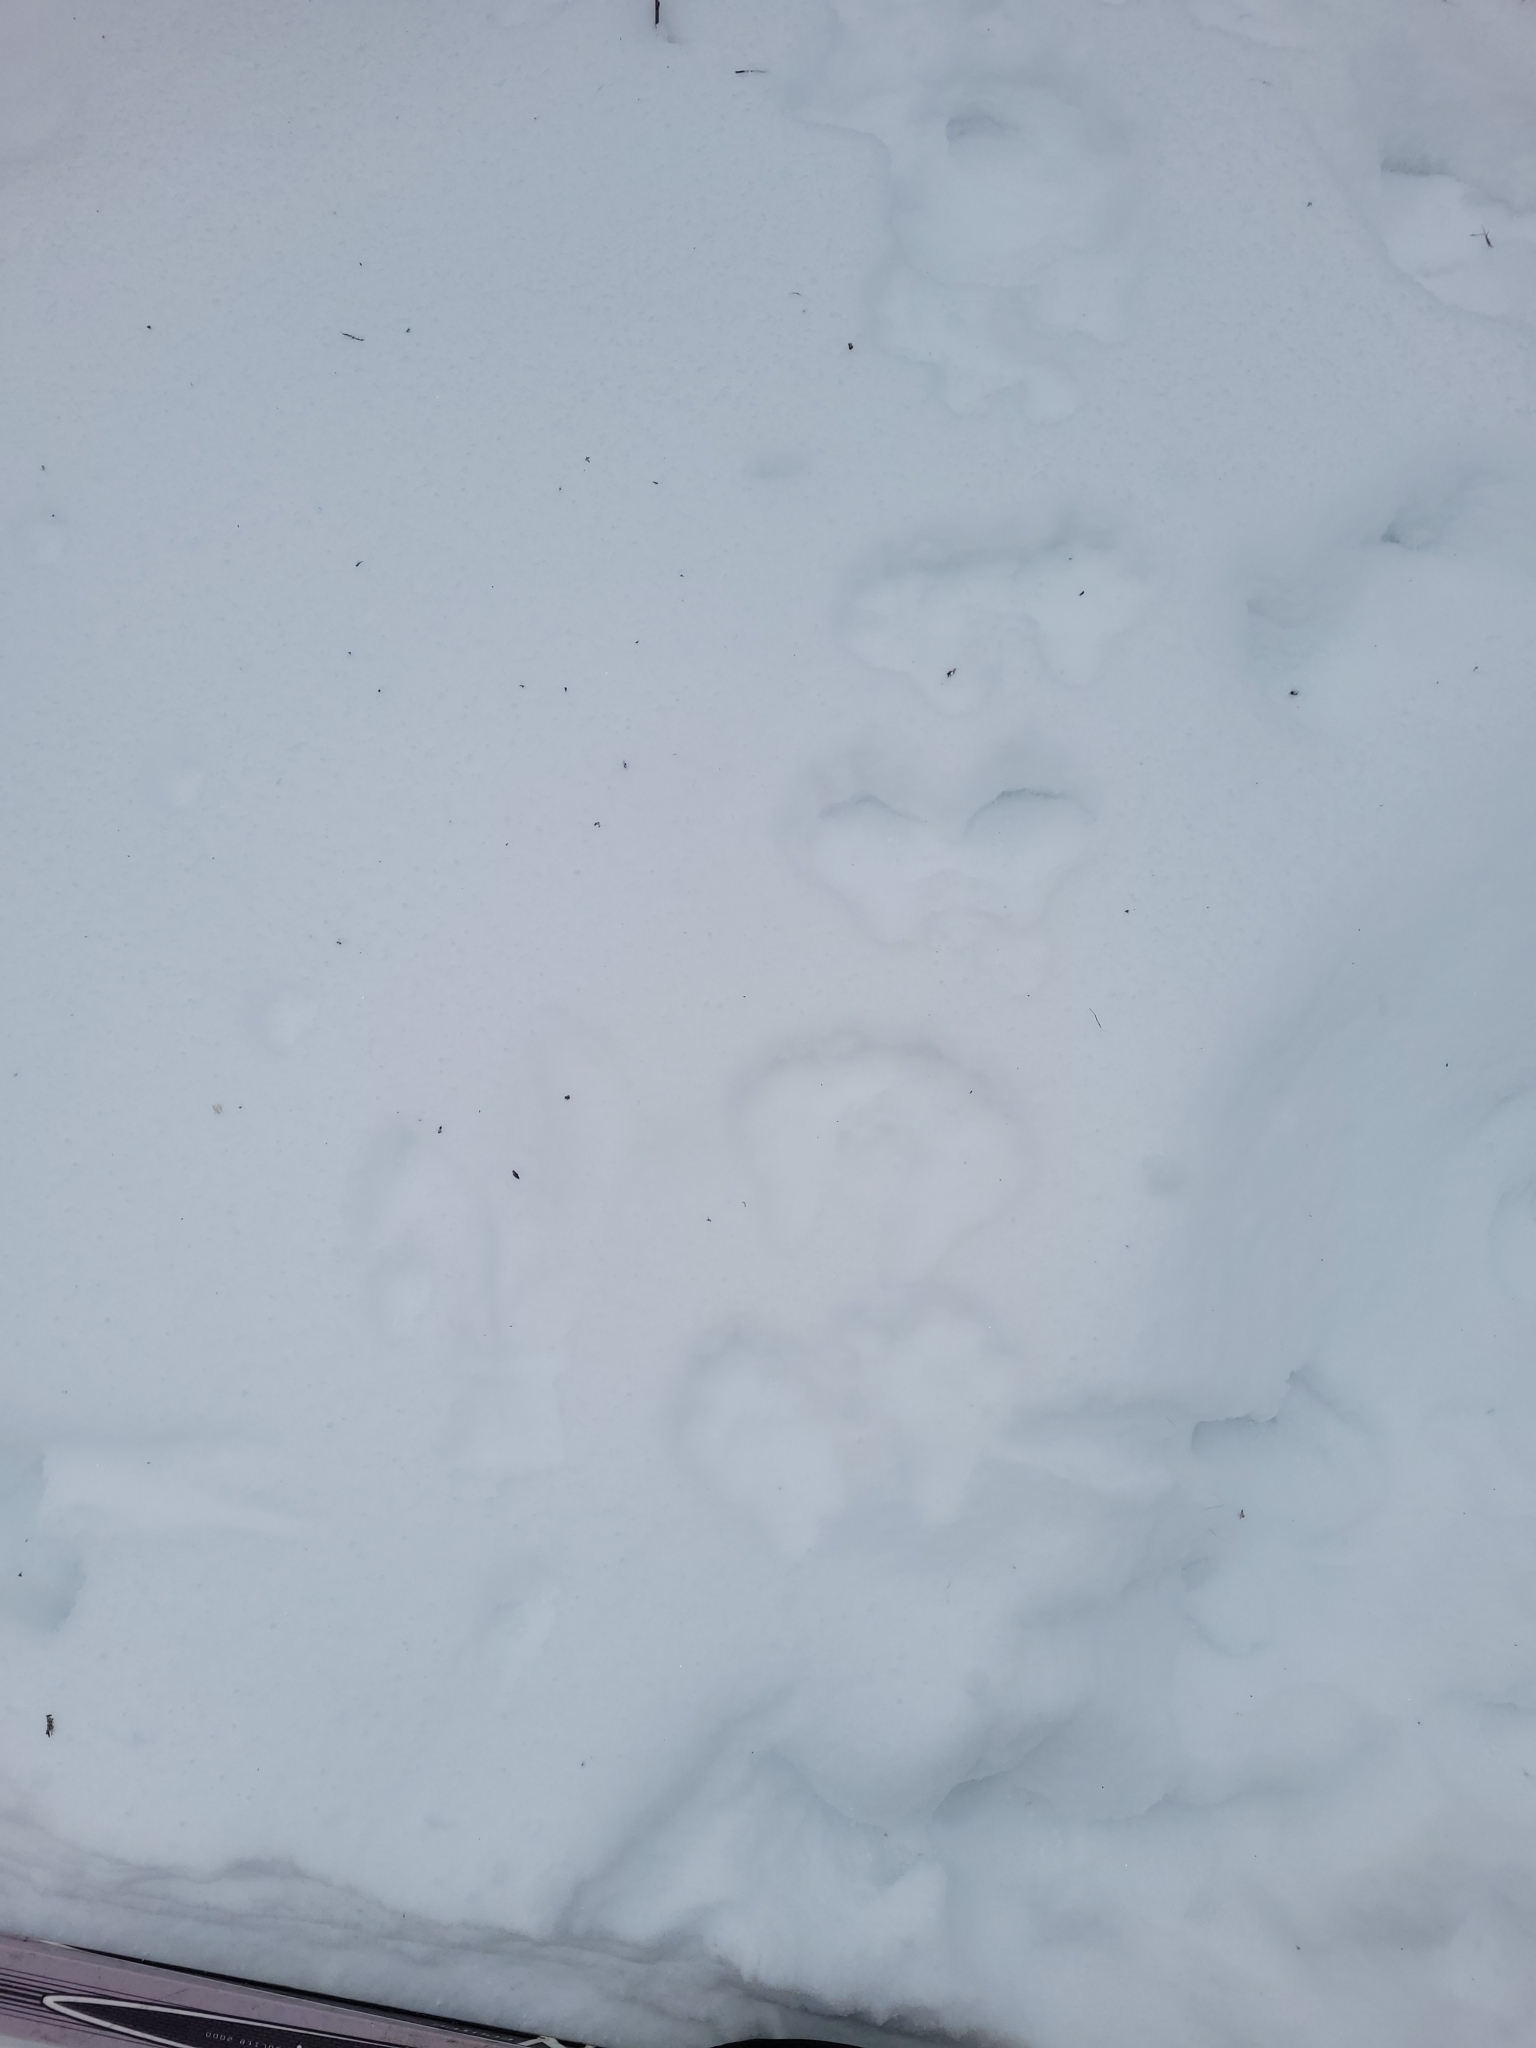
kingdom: Animalia
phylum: Chordata
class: Mammalia
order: Lagomorpha
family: Leporidae
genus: Lepus
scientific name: Lepus americanus
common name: Snowshoe hare
